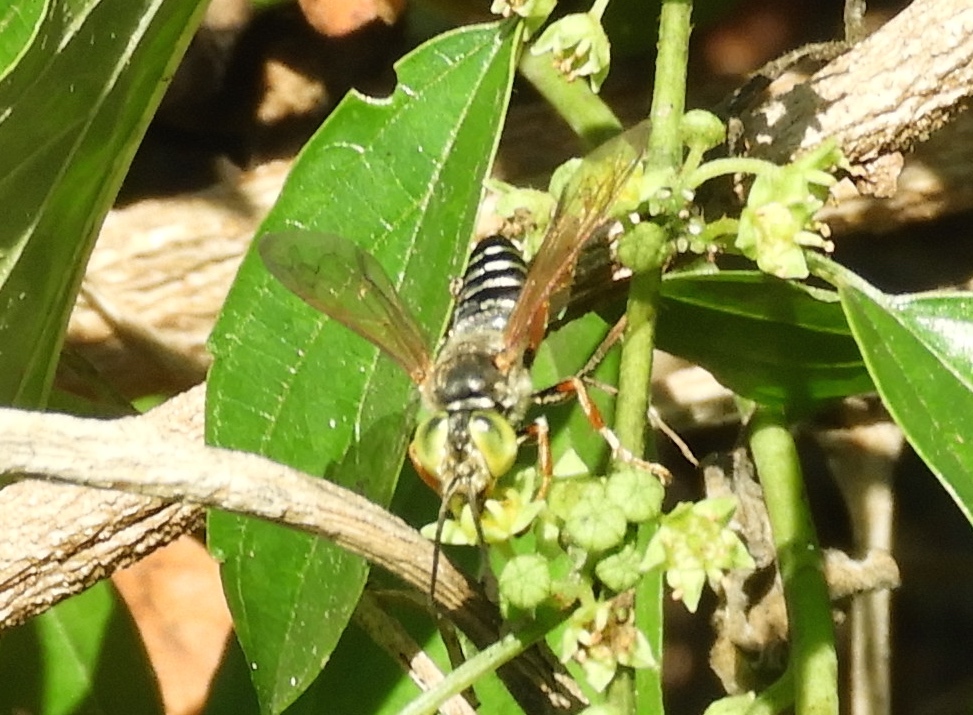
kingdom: Animalia
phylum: Arthropoda
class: Insecta
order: Hymenoptera
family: Crabronidae
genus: Tachytes
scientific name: Tachytes
